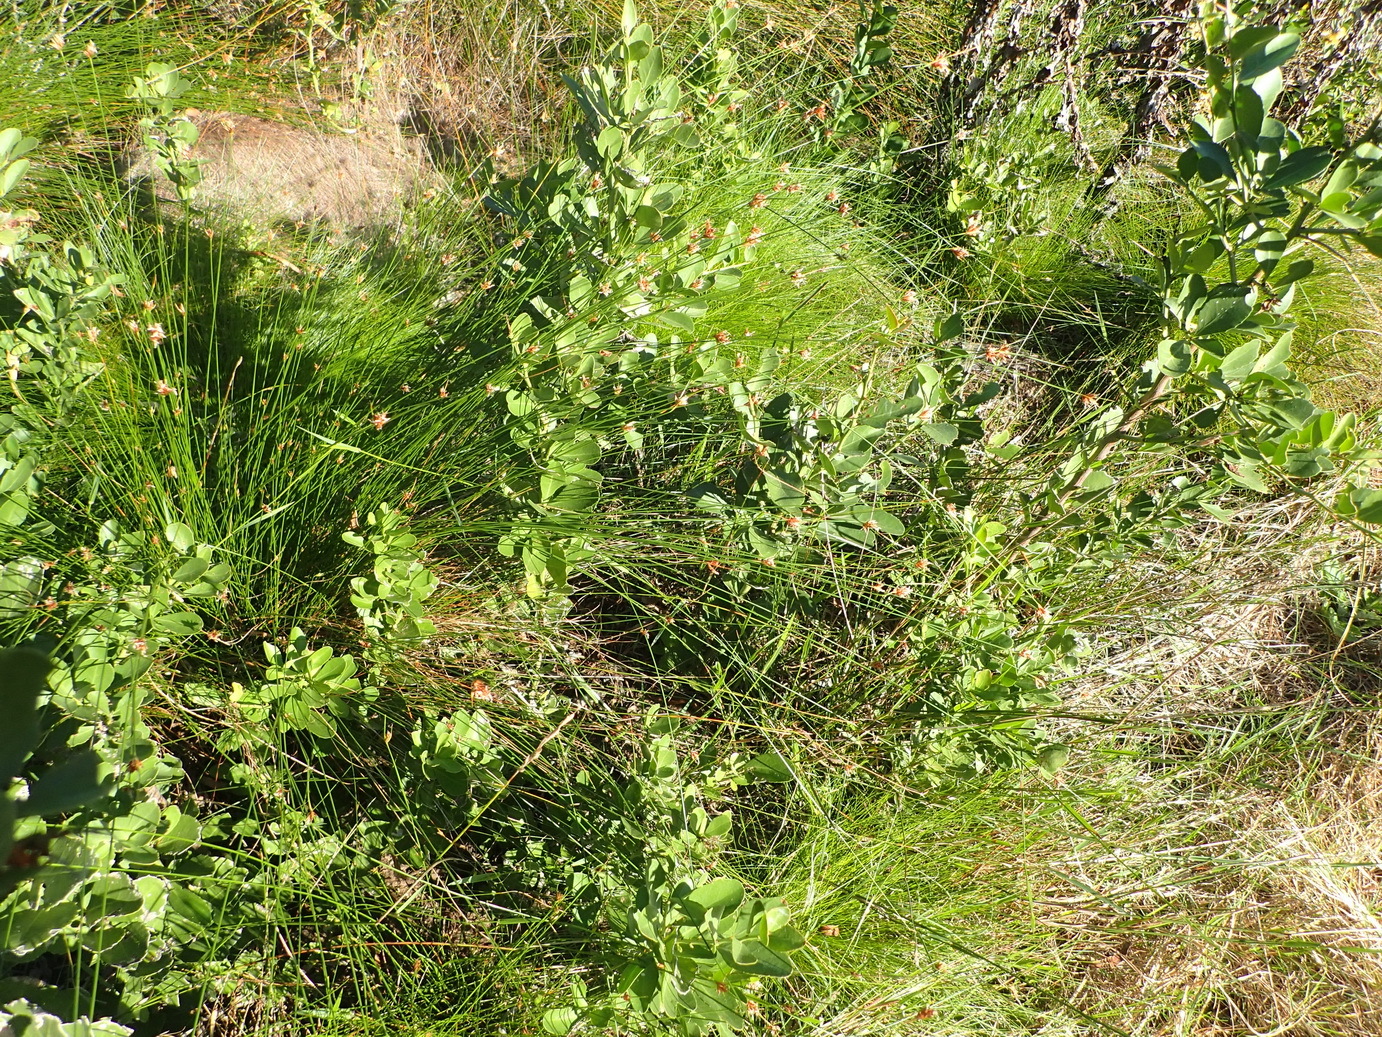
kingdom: Plantae
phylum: Tracheophyta
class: Liliopsida
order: Poales
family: Cyperaceae
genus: Ficinia
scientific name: Ficinia fascicularis
